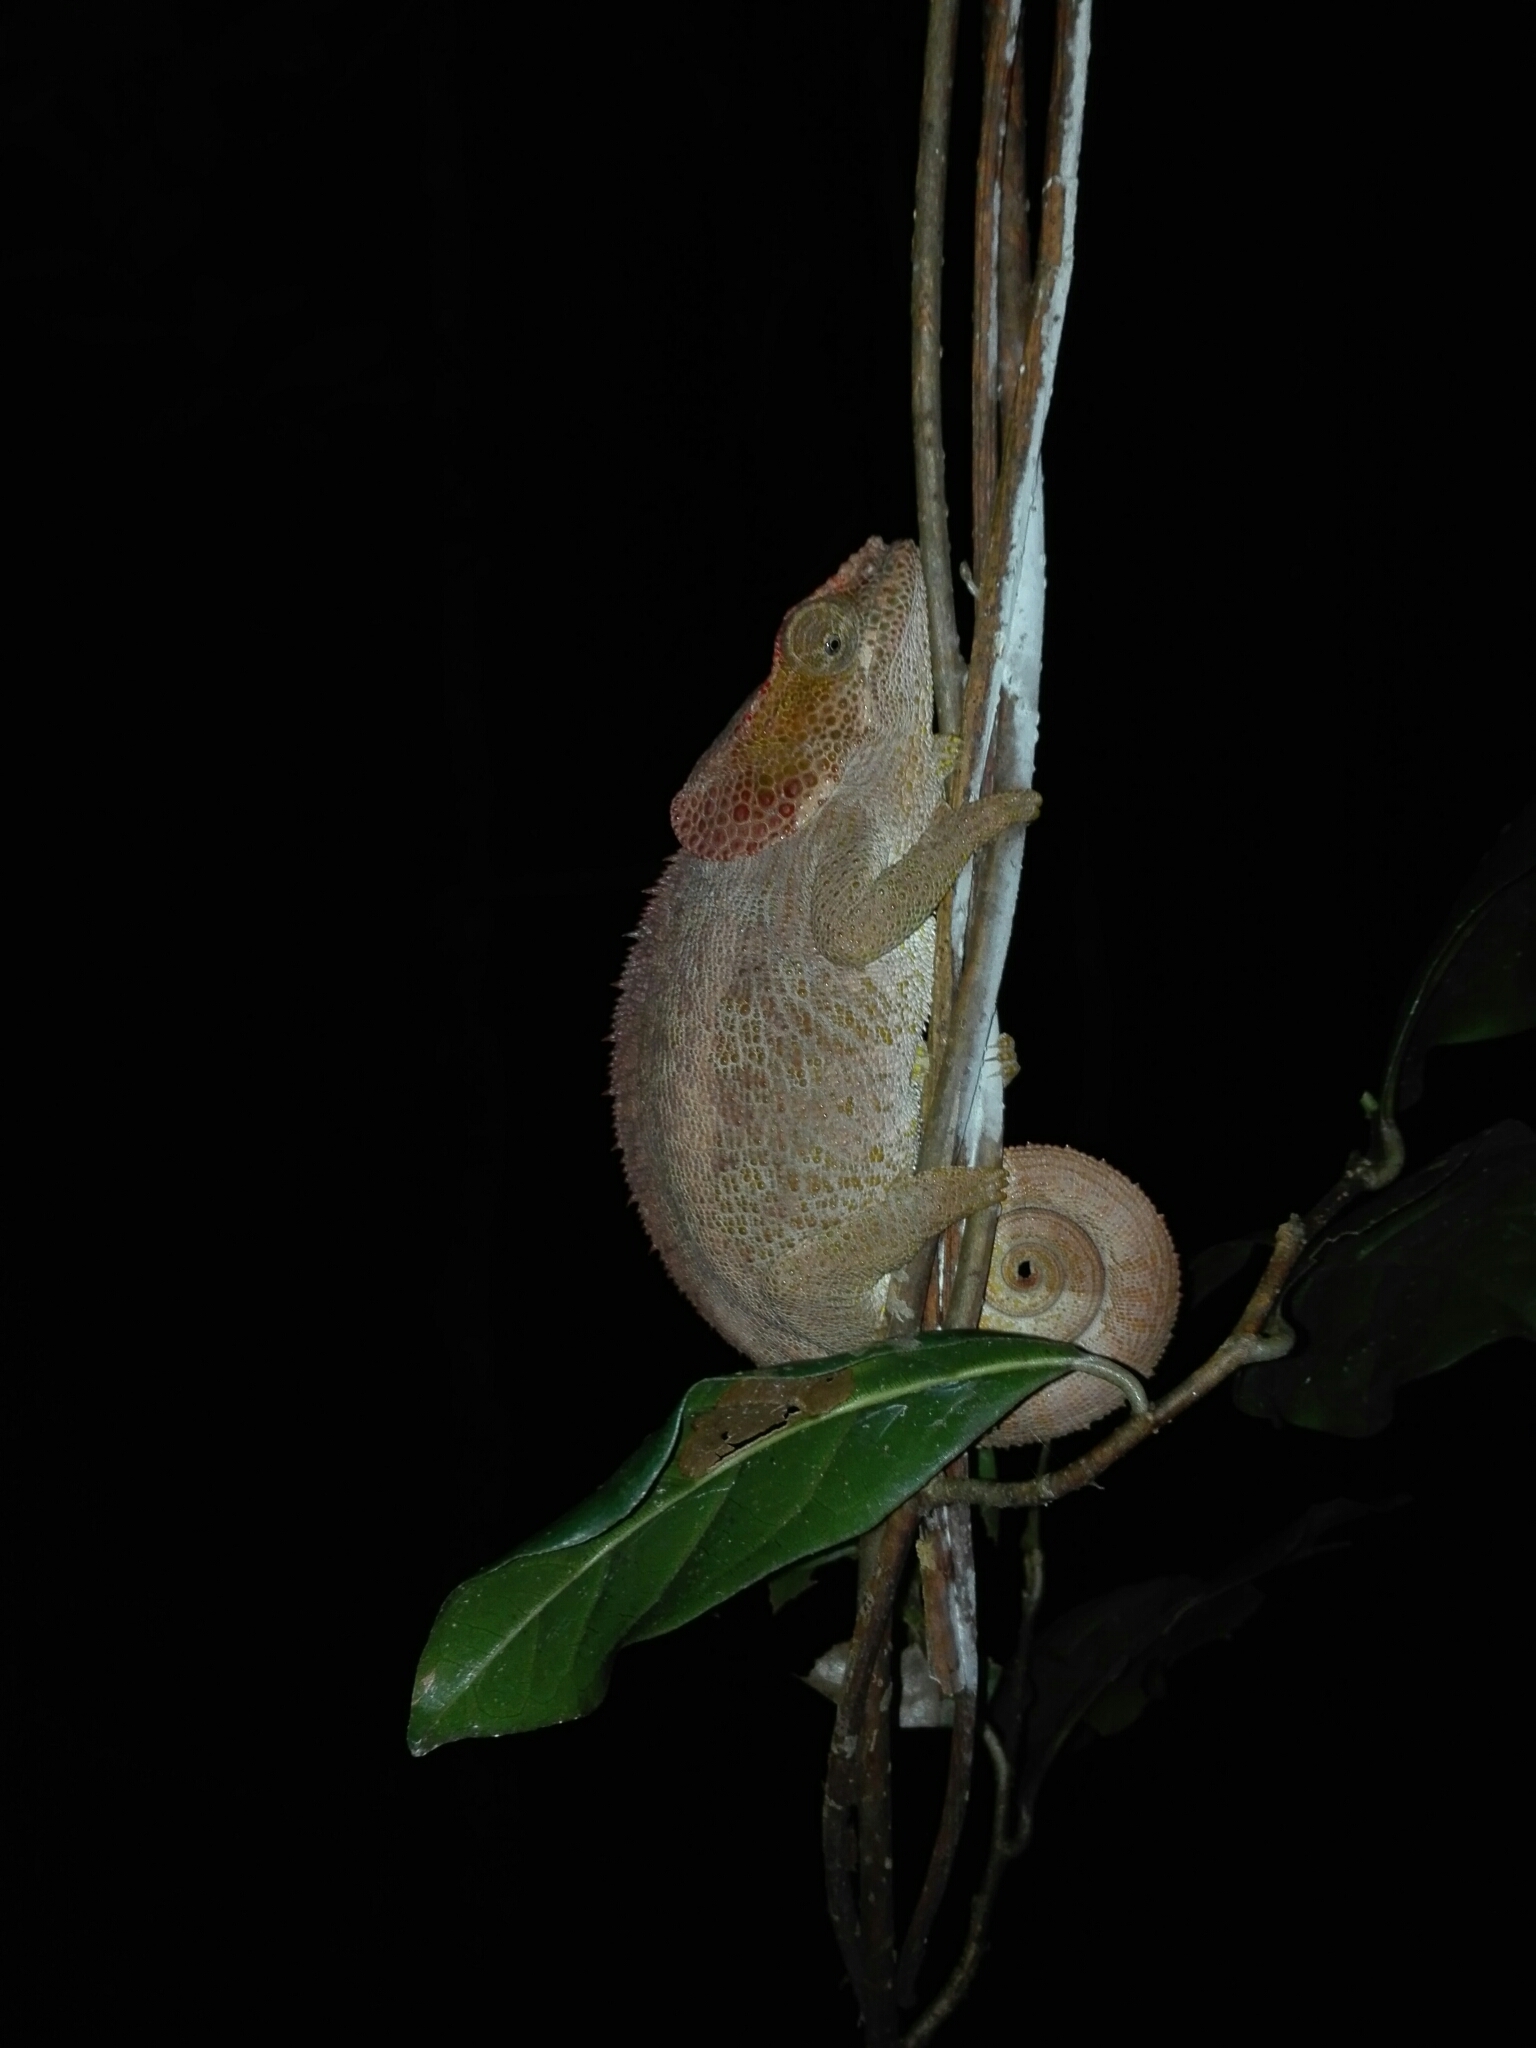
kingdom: Animalia
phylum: Chordata
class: Squamata
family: Chamaeleonidae
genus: Calumma
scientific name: Calumma brevicorne
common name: Short-horned chameleon
